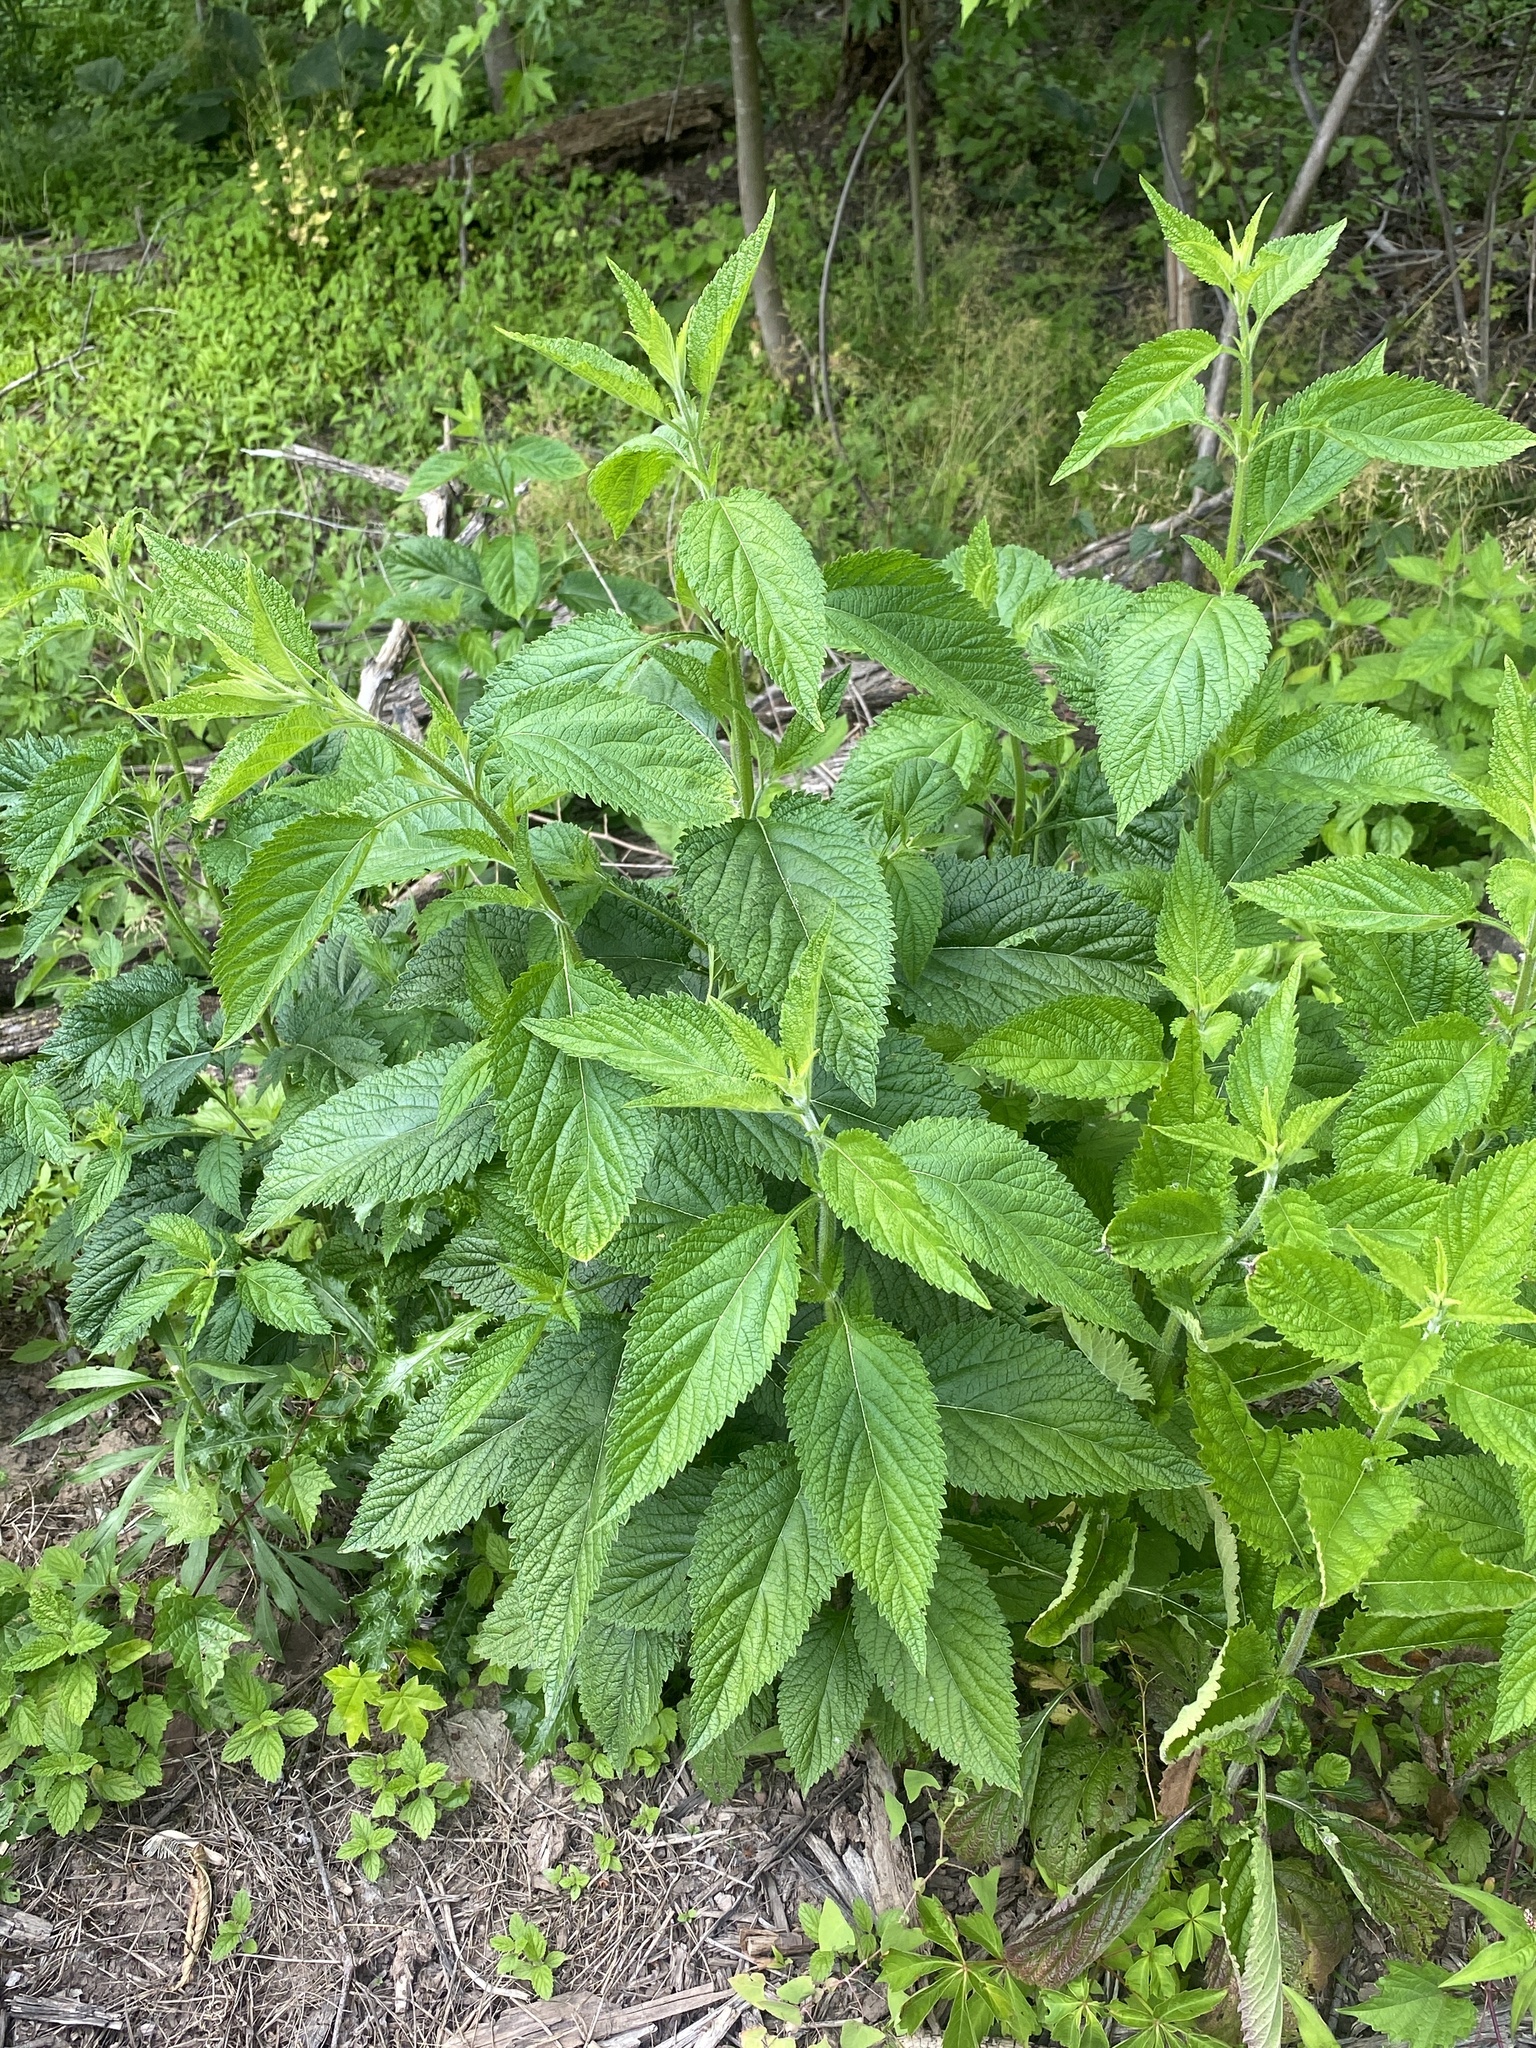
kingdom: Plantae
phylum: Tracheophyta
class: Magnoliopsida
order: Lamiales
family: Verbenaceae
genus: Verbena
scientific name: Verbena urticifolia
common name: Nettle-leaved vervain
